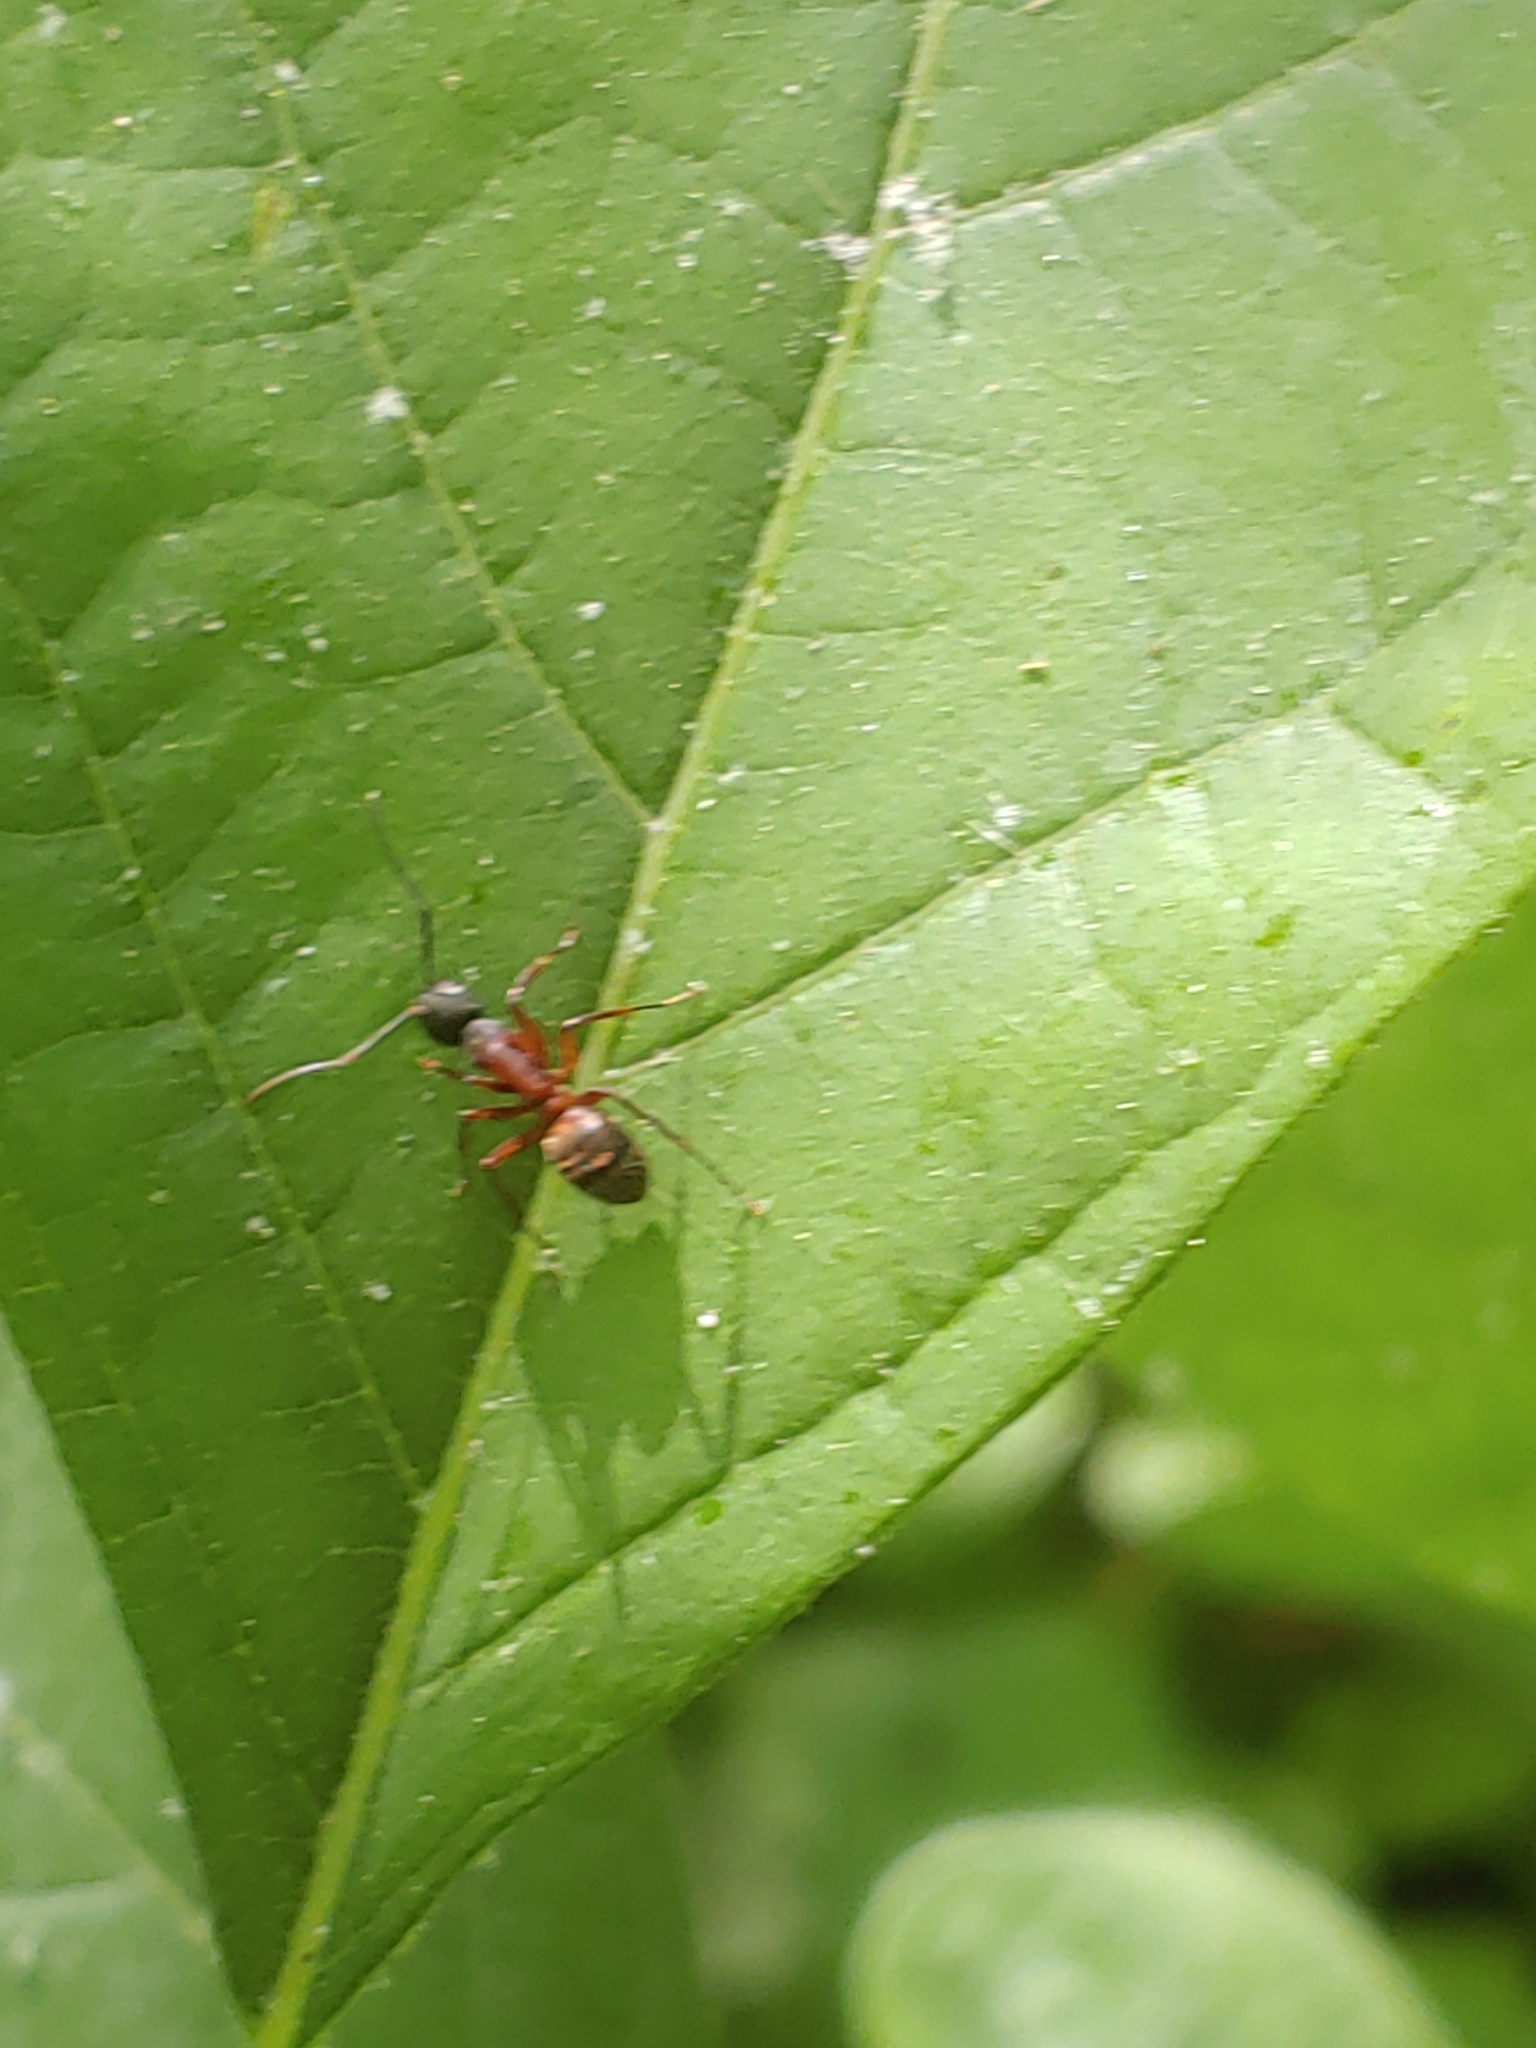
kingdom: Animalia
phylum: Arthropoda
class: Insecta
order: Hymenoptera
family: Formicidae
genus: Camponotus
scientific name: Camponotus chromaiodes
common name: Red carpenter ant
